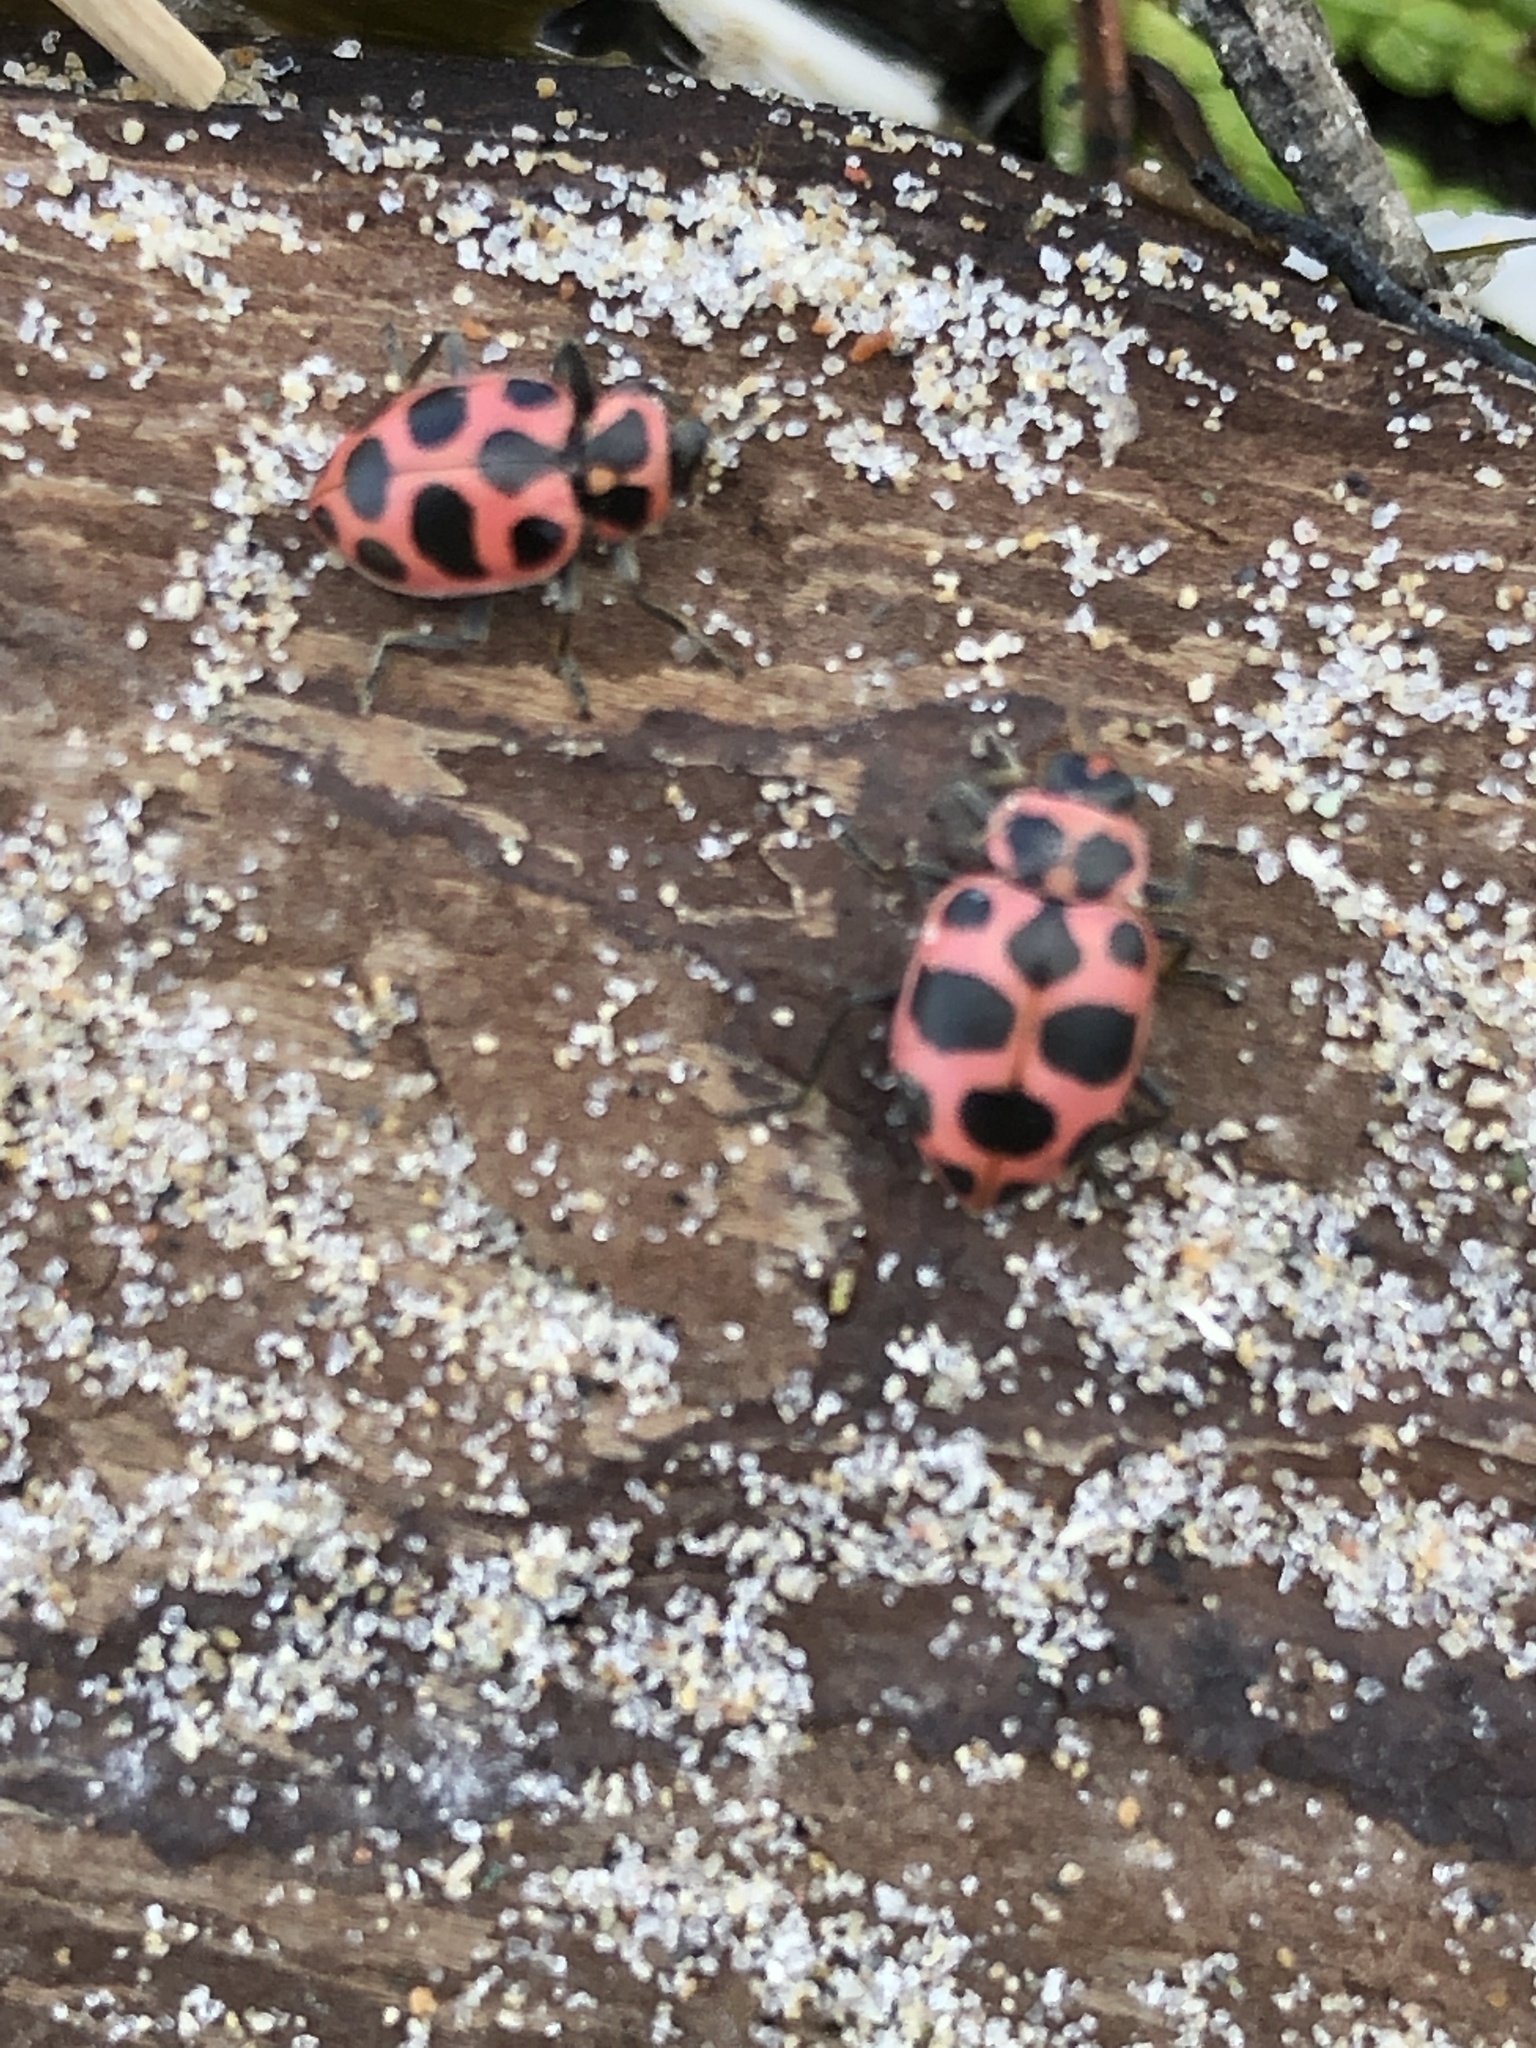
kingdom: Animalia
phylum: Arthropoda
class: Insecta
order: Coleoptera
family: Coccinellidae
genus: Coleomegilla
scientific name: Coleomegilla maculata
